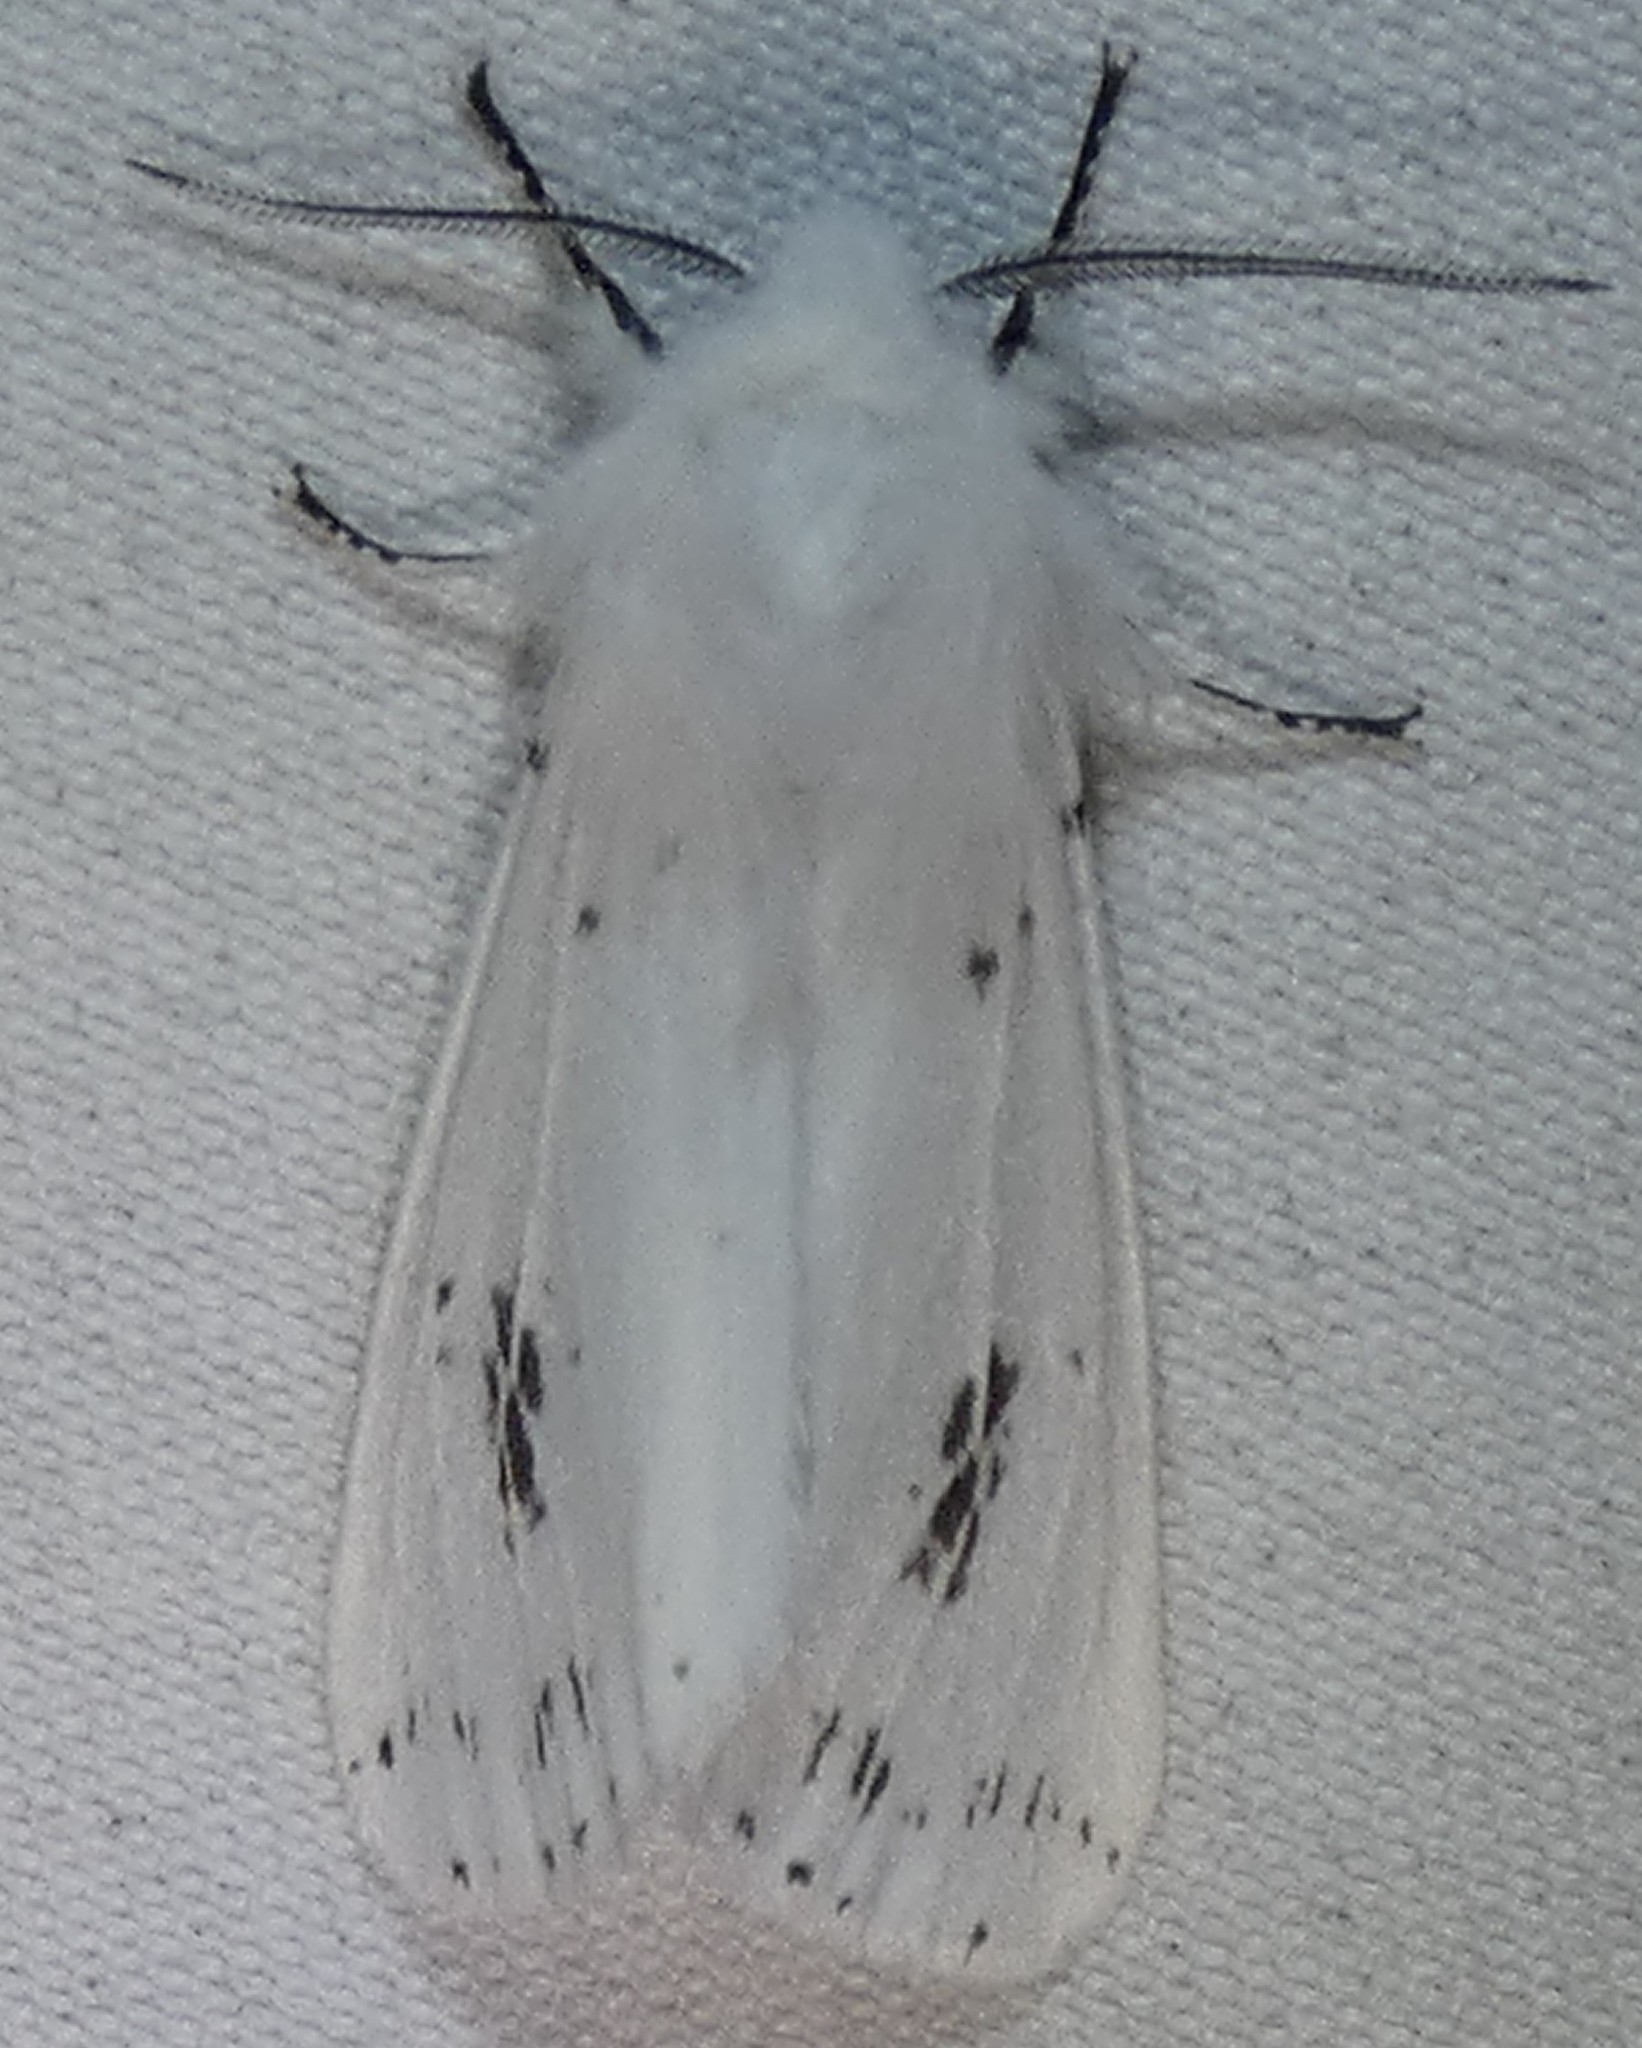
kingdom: Animalia
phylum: Arthropoda
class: Insecta
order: Lepidoptera
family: Erebidae
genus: Hyphantria
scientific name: Hyphantria cunea
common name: American white moth
